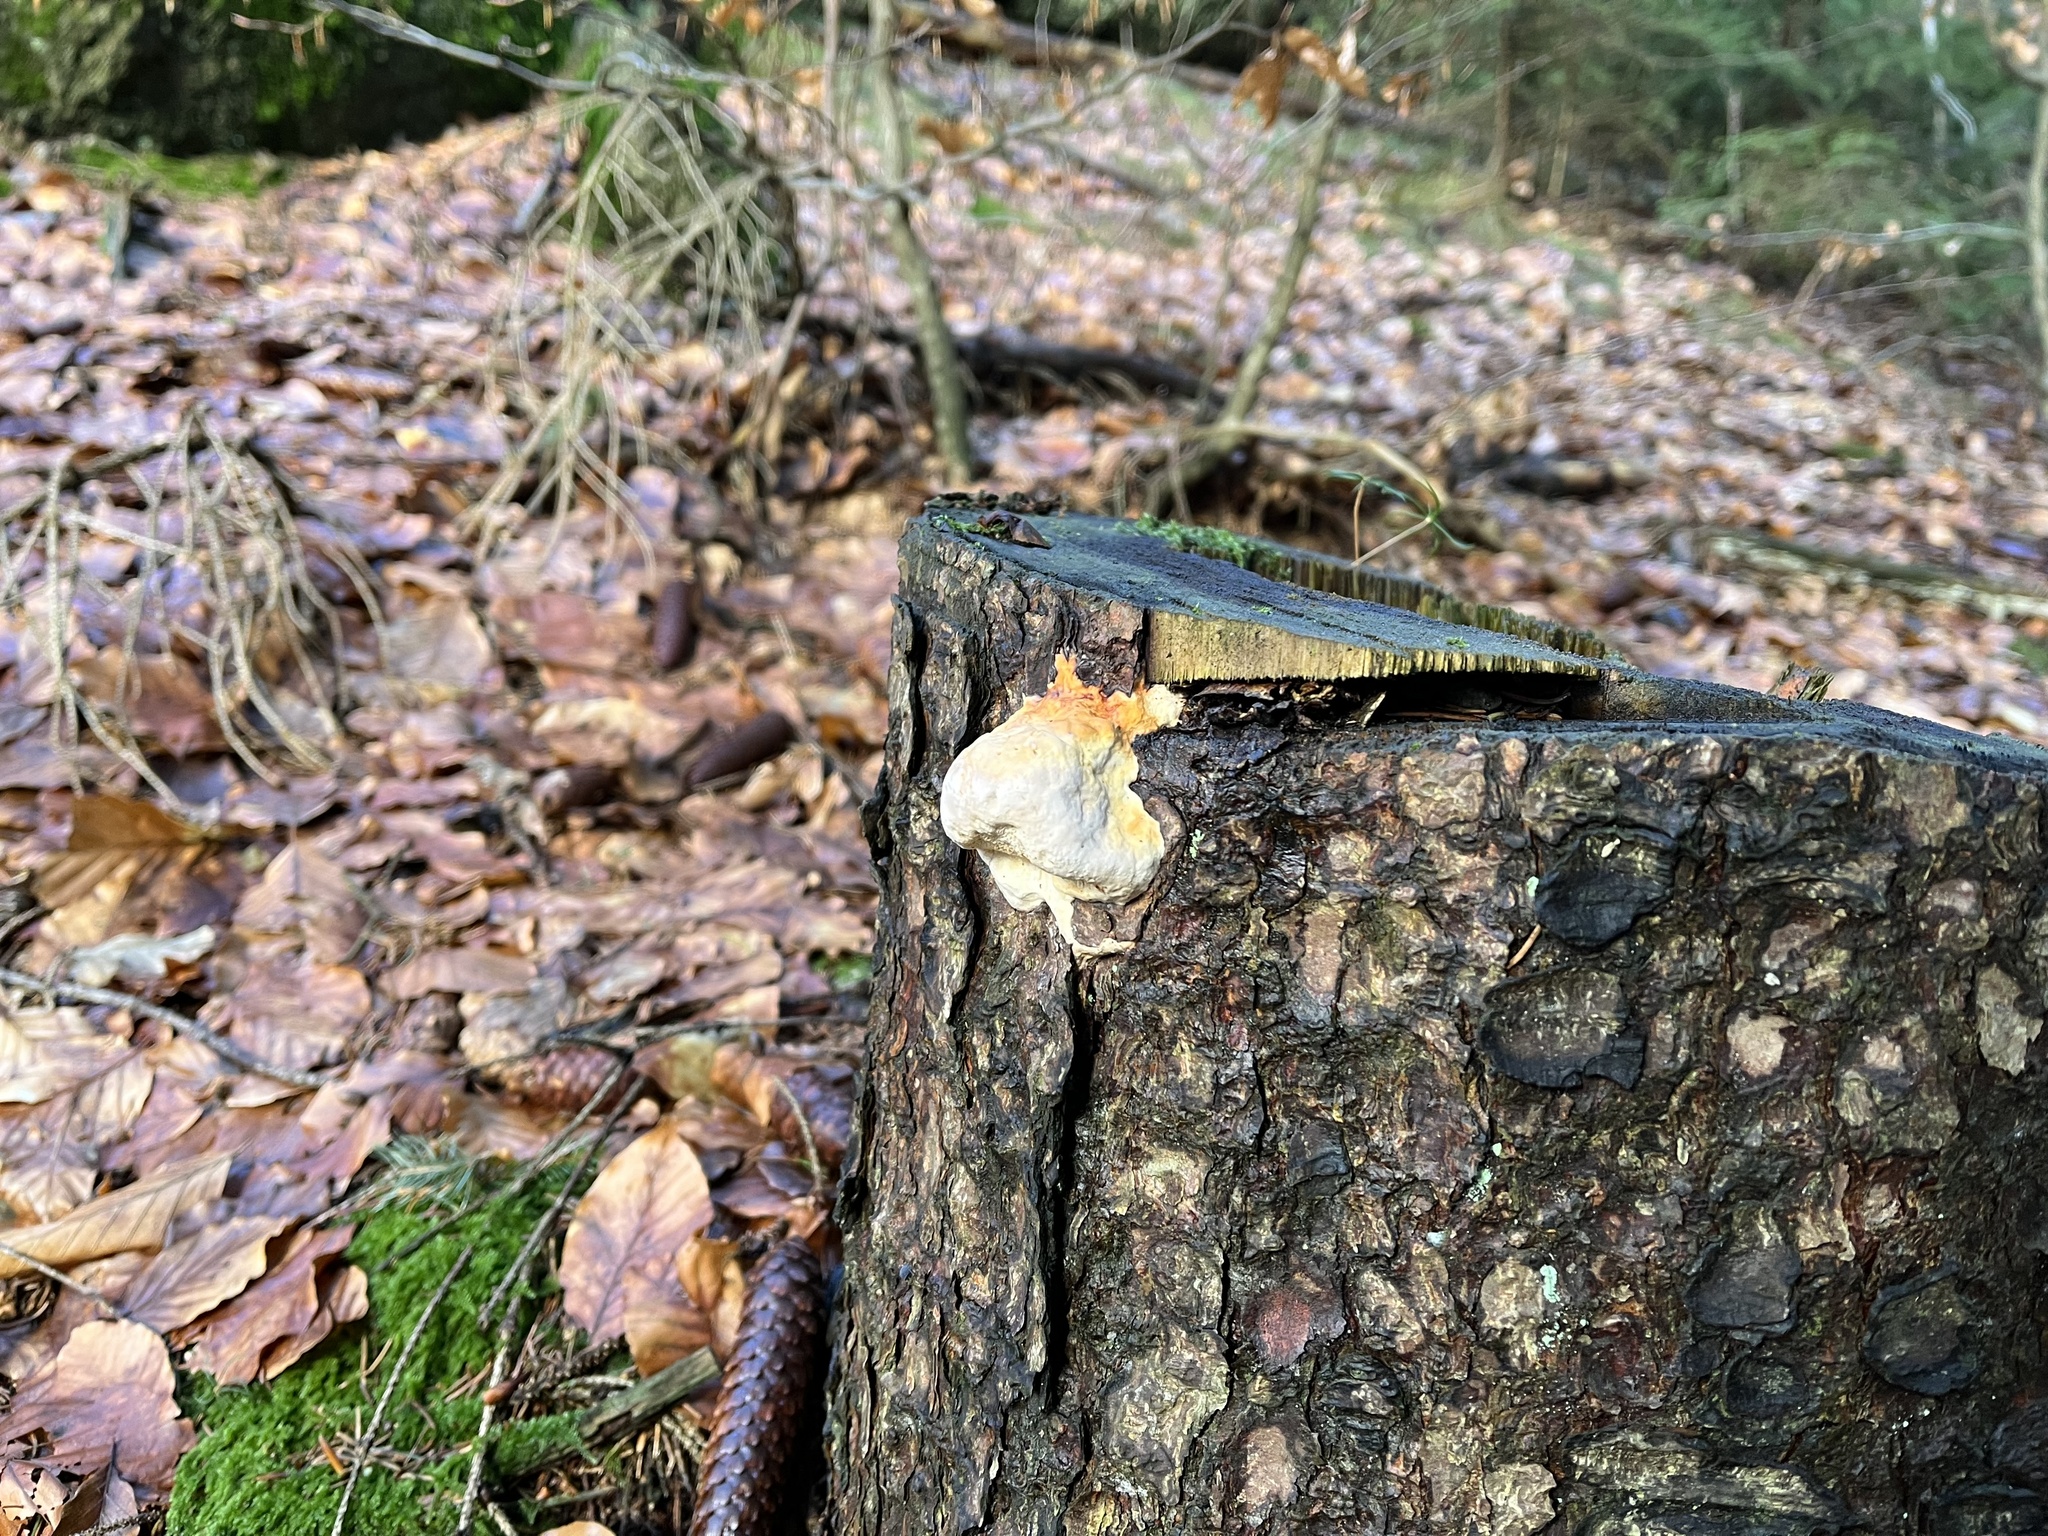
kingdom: Fungi
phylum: Basidiomycota
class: Agaricomycetes
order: Polyporales
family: Fomitopsidaceae
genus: Fomitopsis
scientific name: Fomitopsis pinicola
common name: Red-belted bracket
